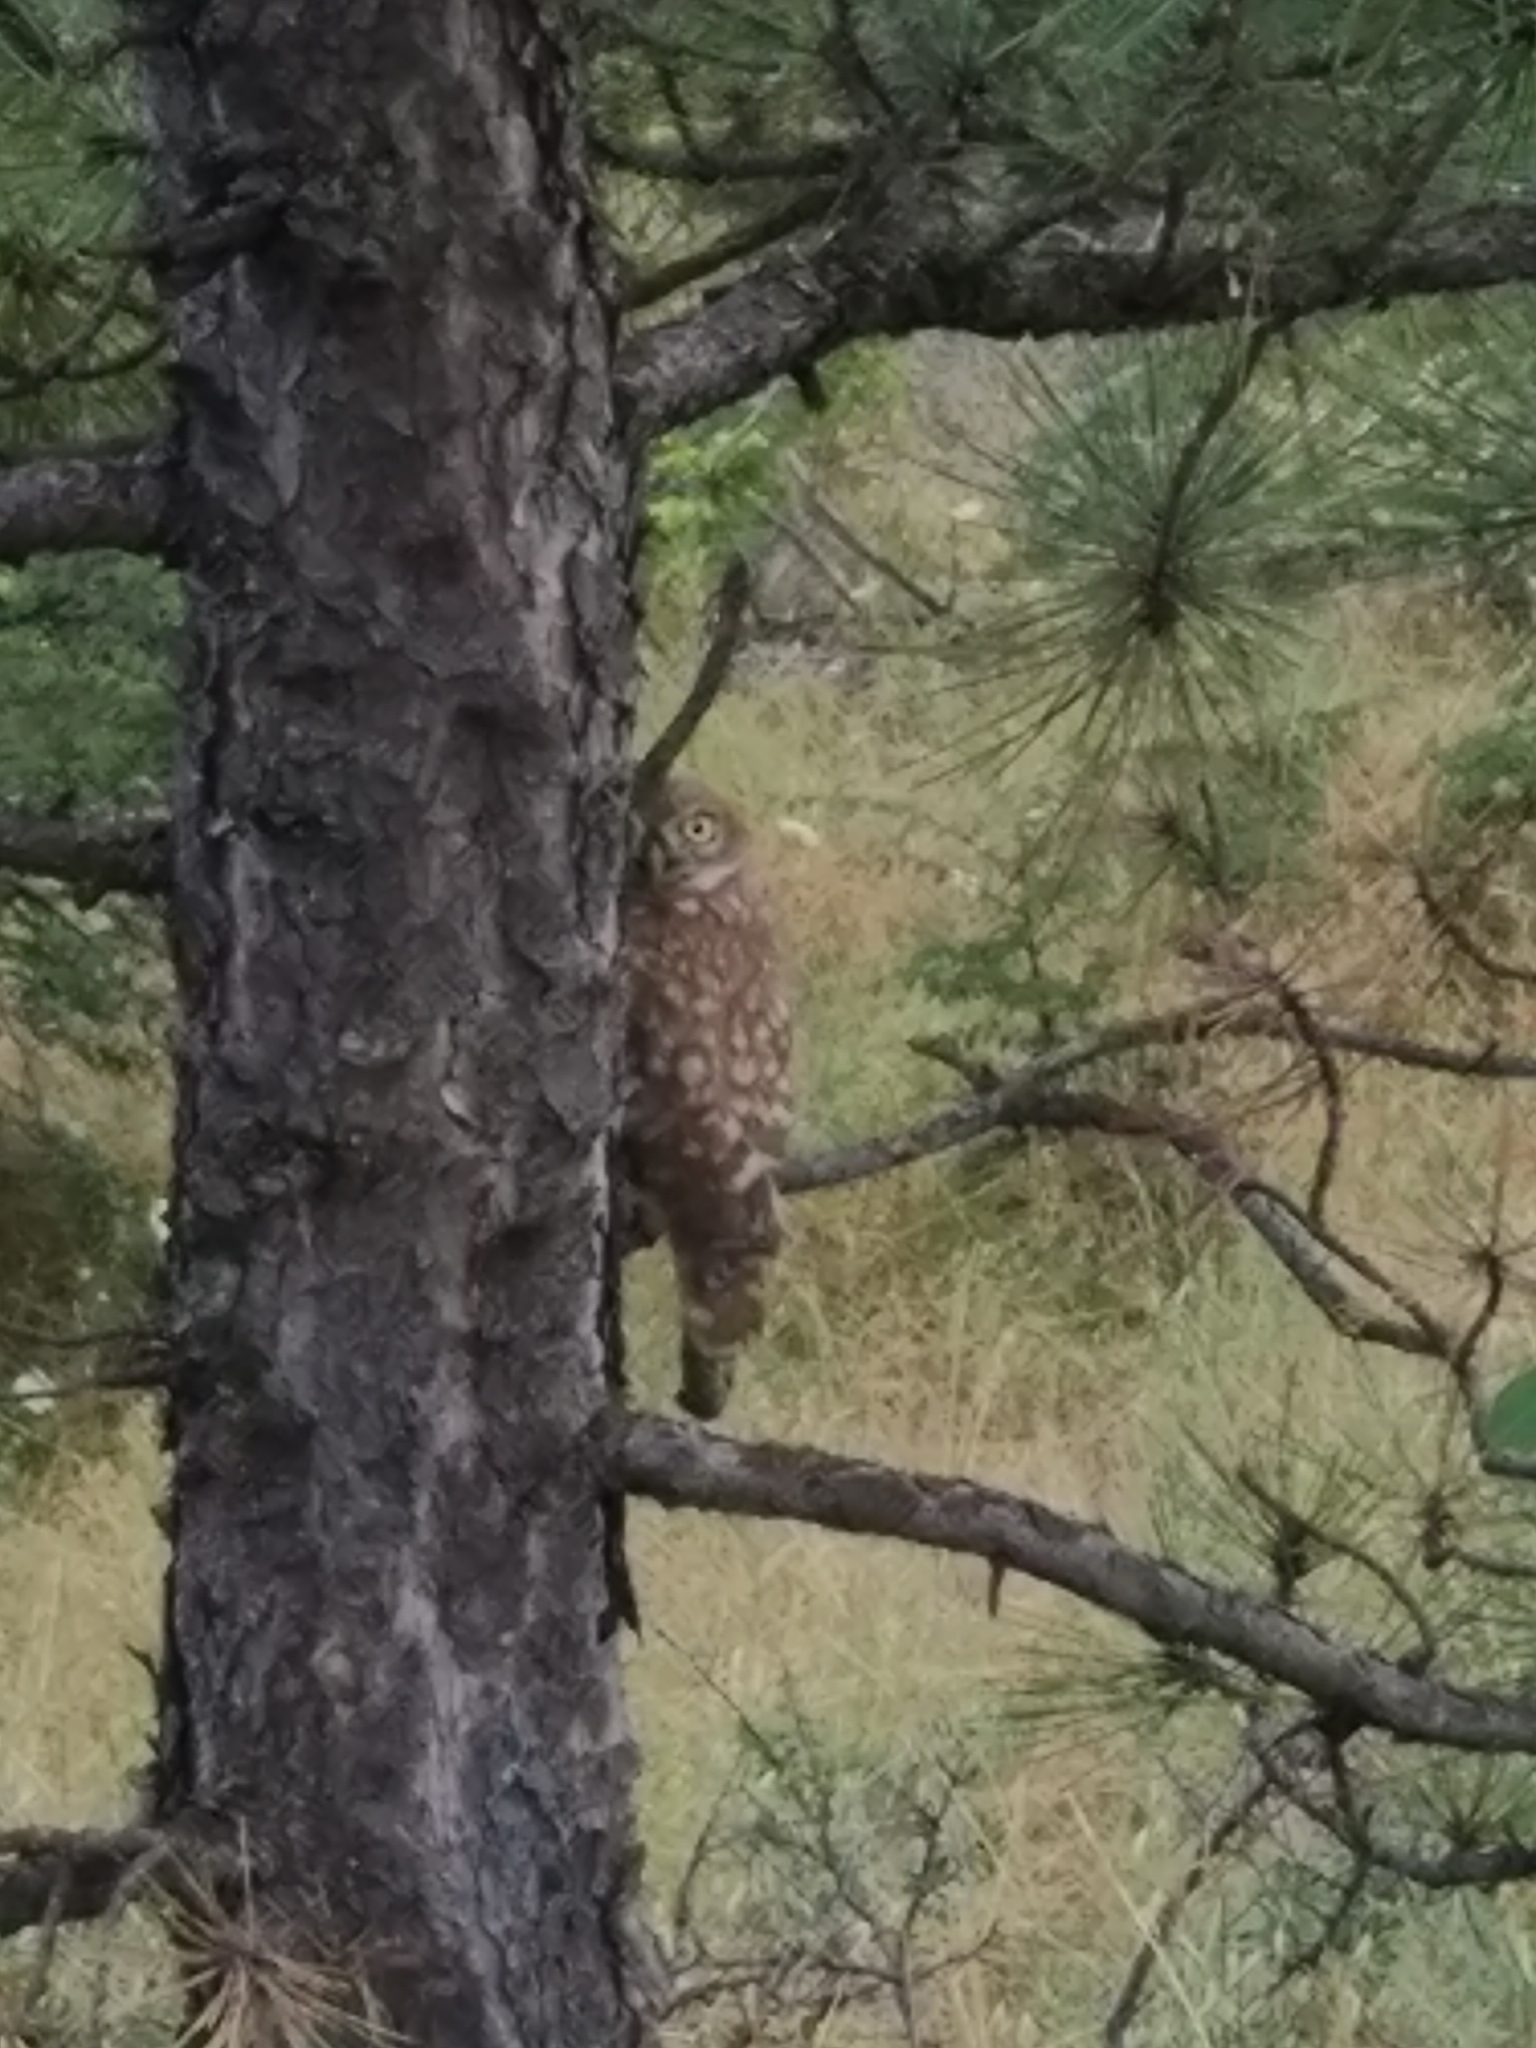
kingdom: Animalia
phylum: Chordata
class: Aves
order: Strigiformes
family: Strigidae
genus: Athene
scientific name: Athene noctua
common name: Little owl
